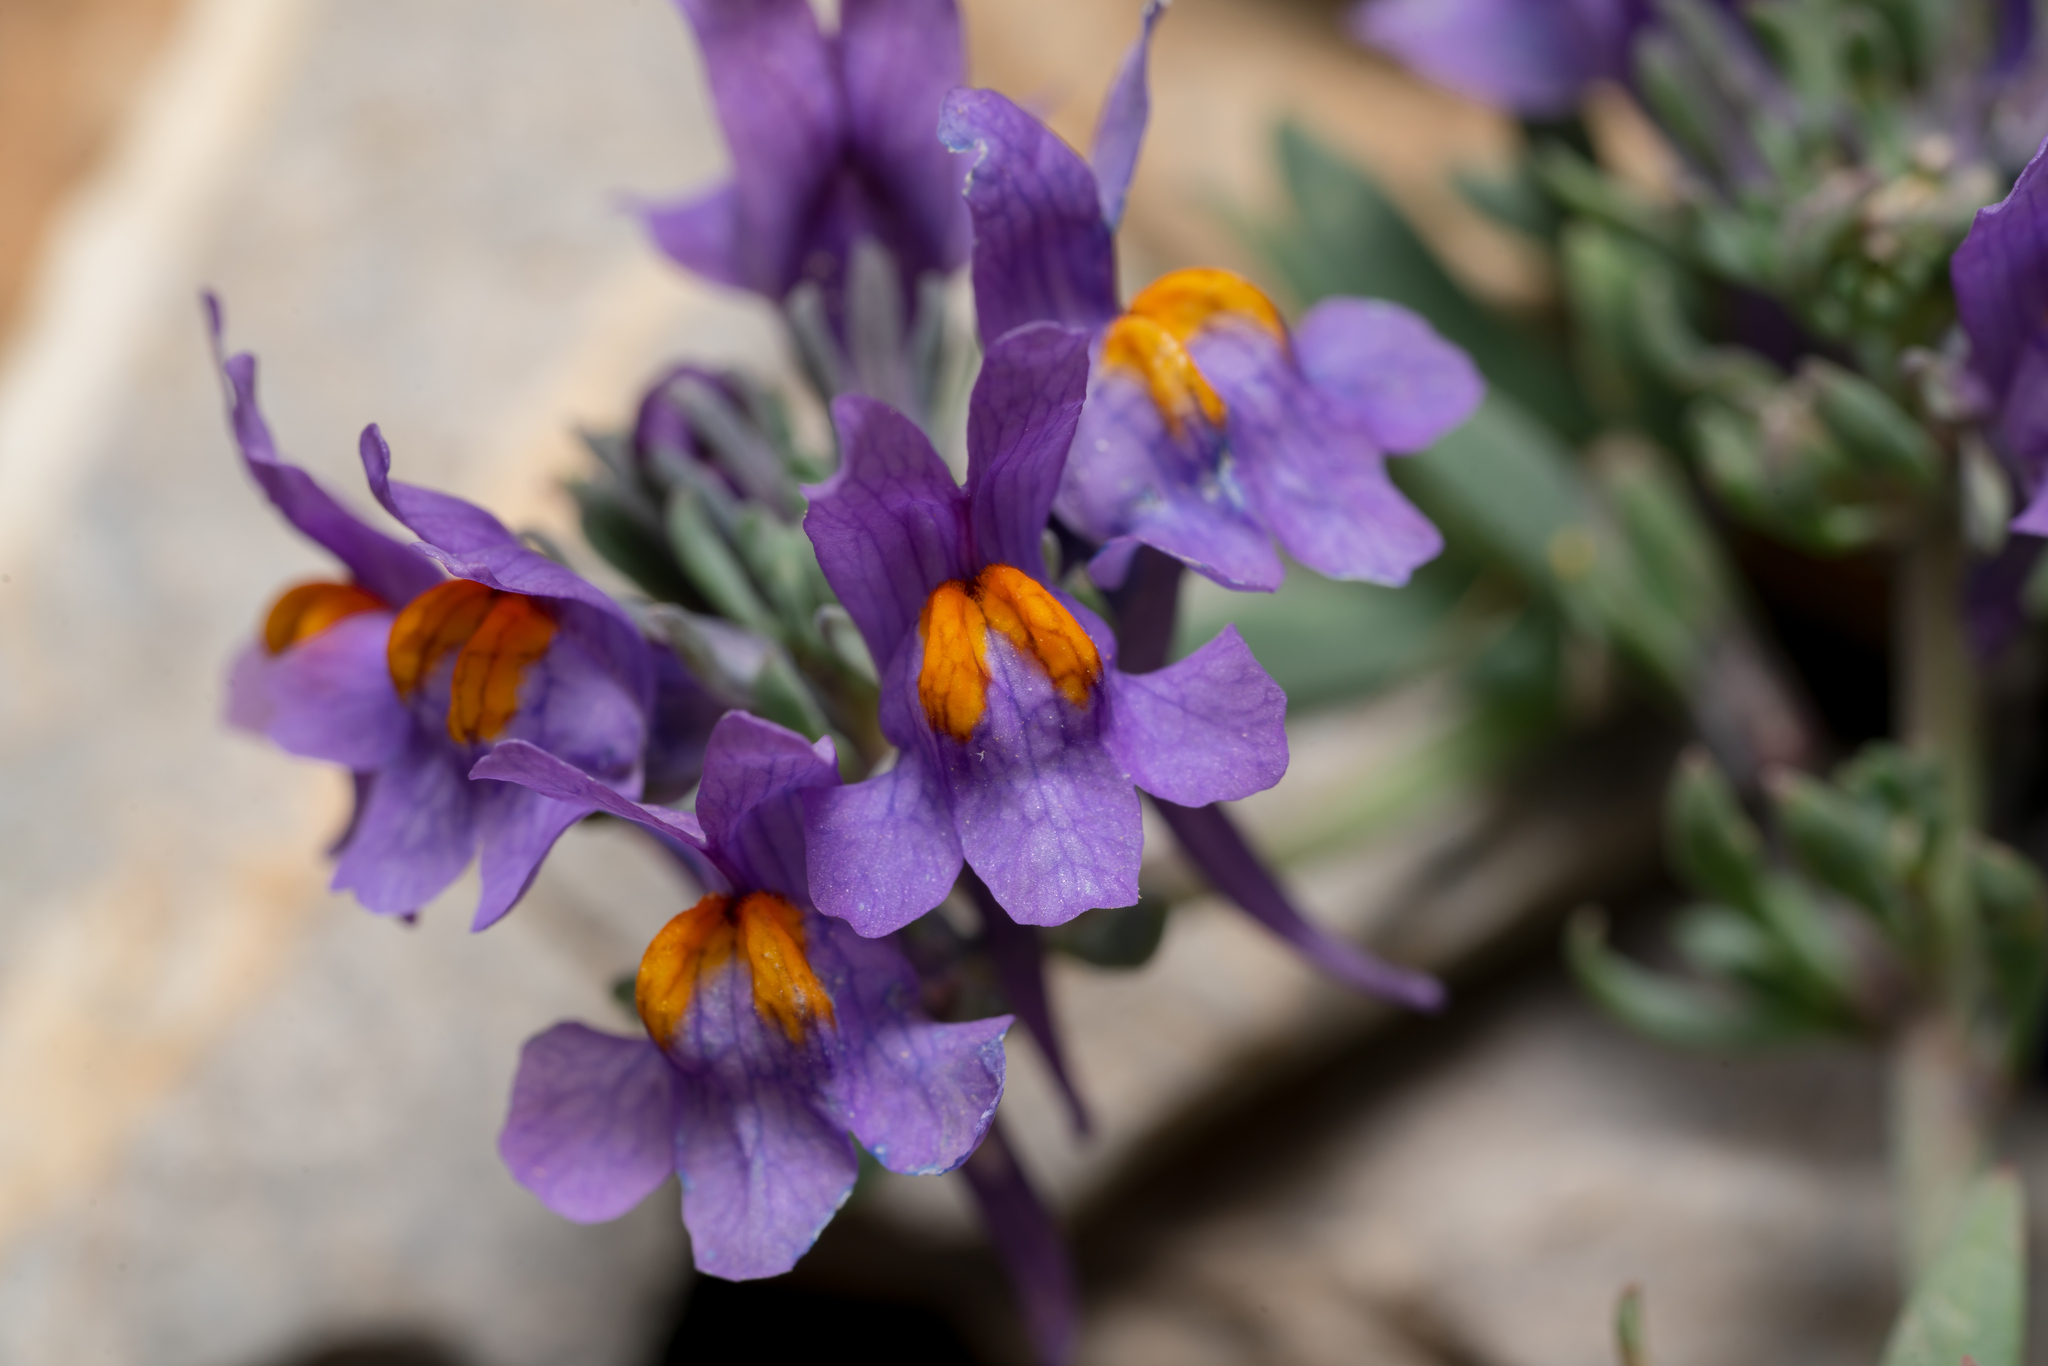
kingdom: Plantae
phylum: Tracheophyta
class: Magnoliopsida
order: Lamiales
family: Plantaginaceae
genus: Linaria
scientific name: Linaria alpina
